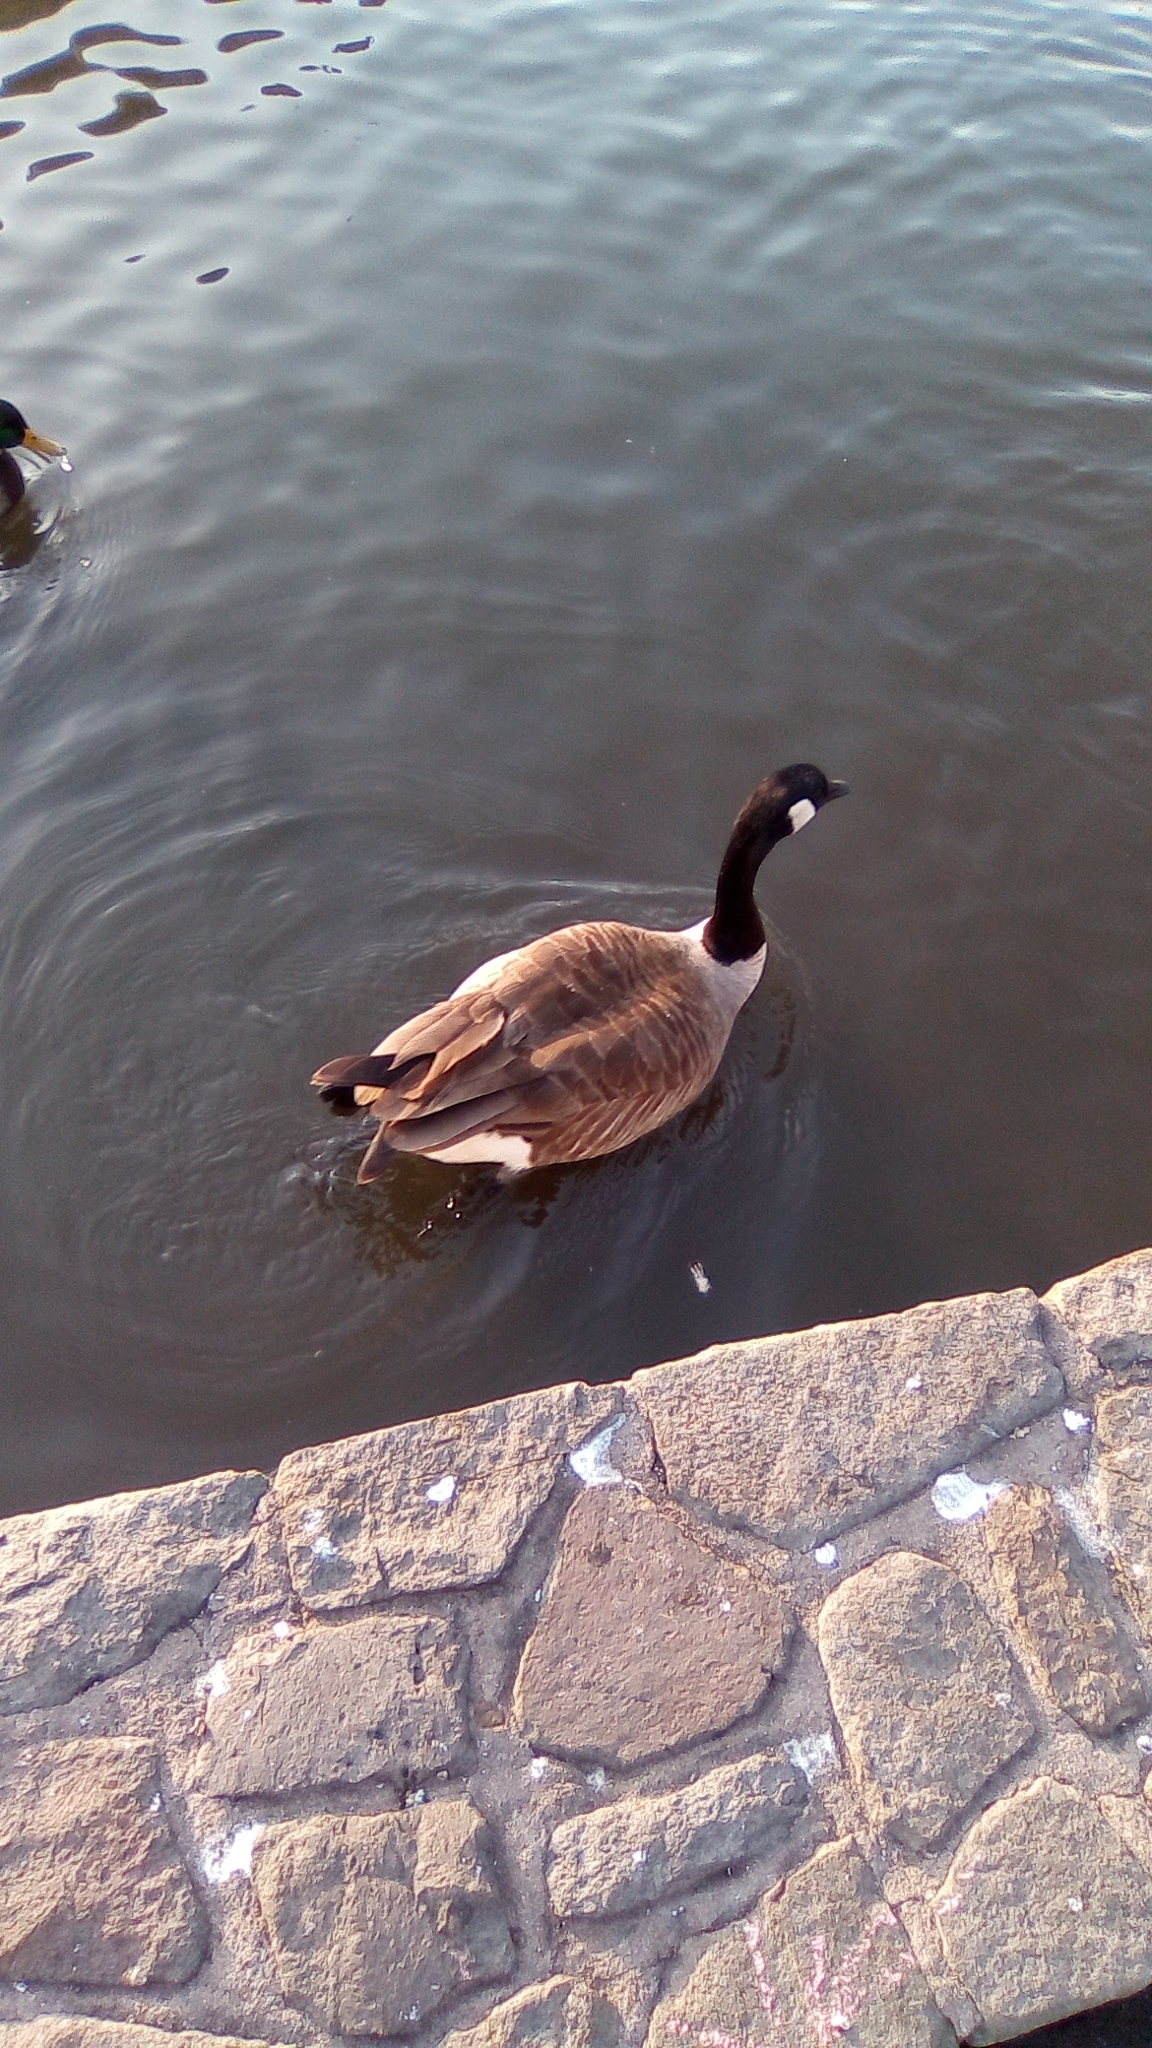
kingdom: Animalia
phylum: Chordata
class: Aves
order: Anseriformes
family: Anatidae
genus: Branta
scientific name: Branta canadensis
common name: Canada goose
